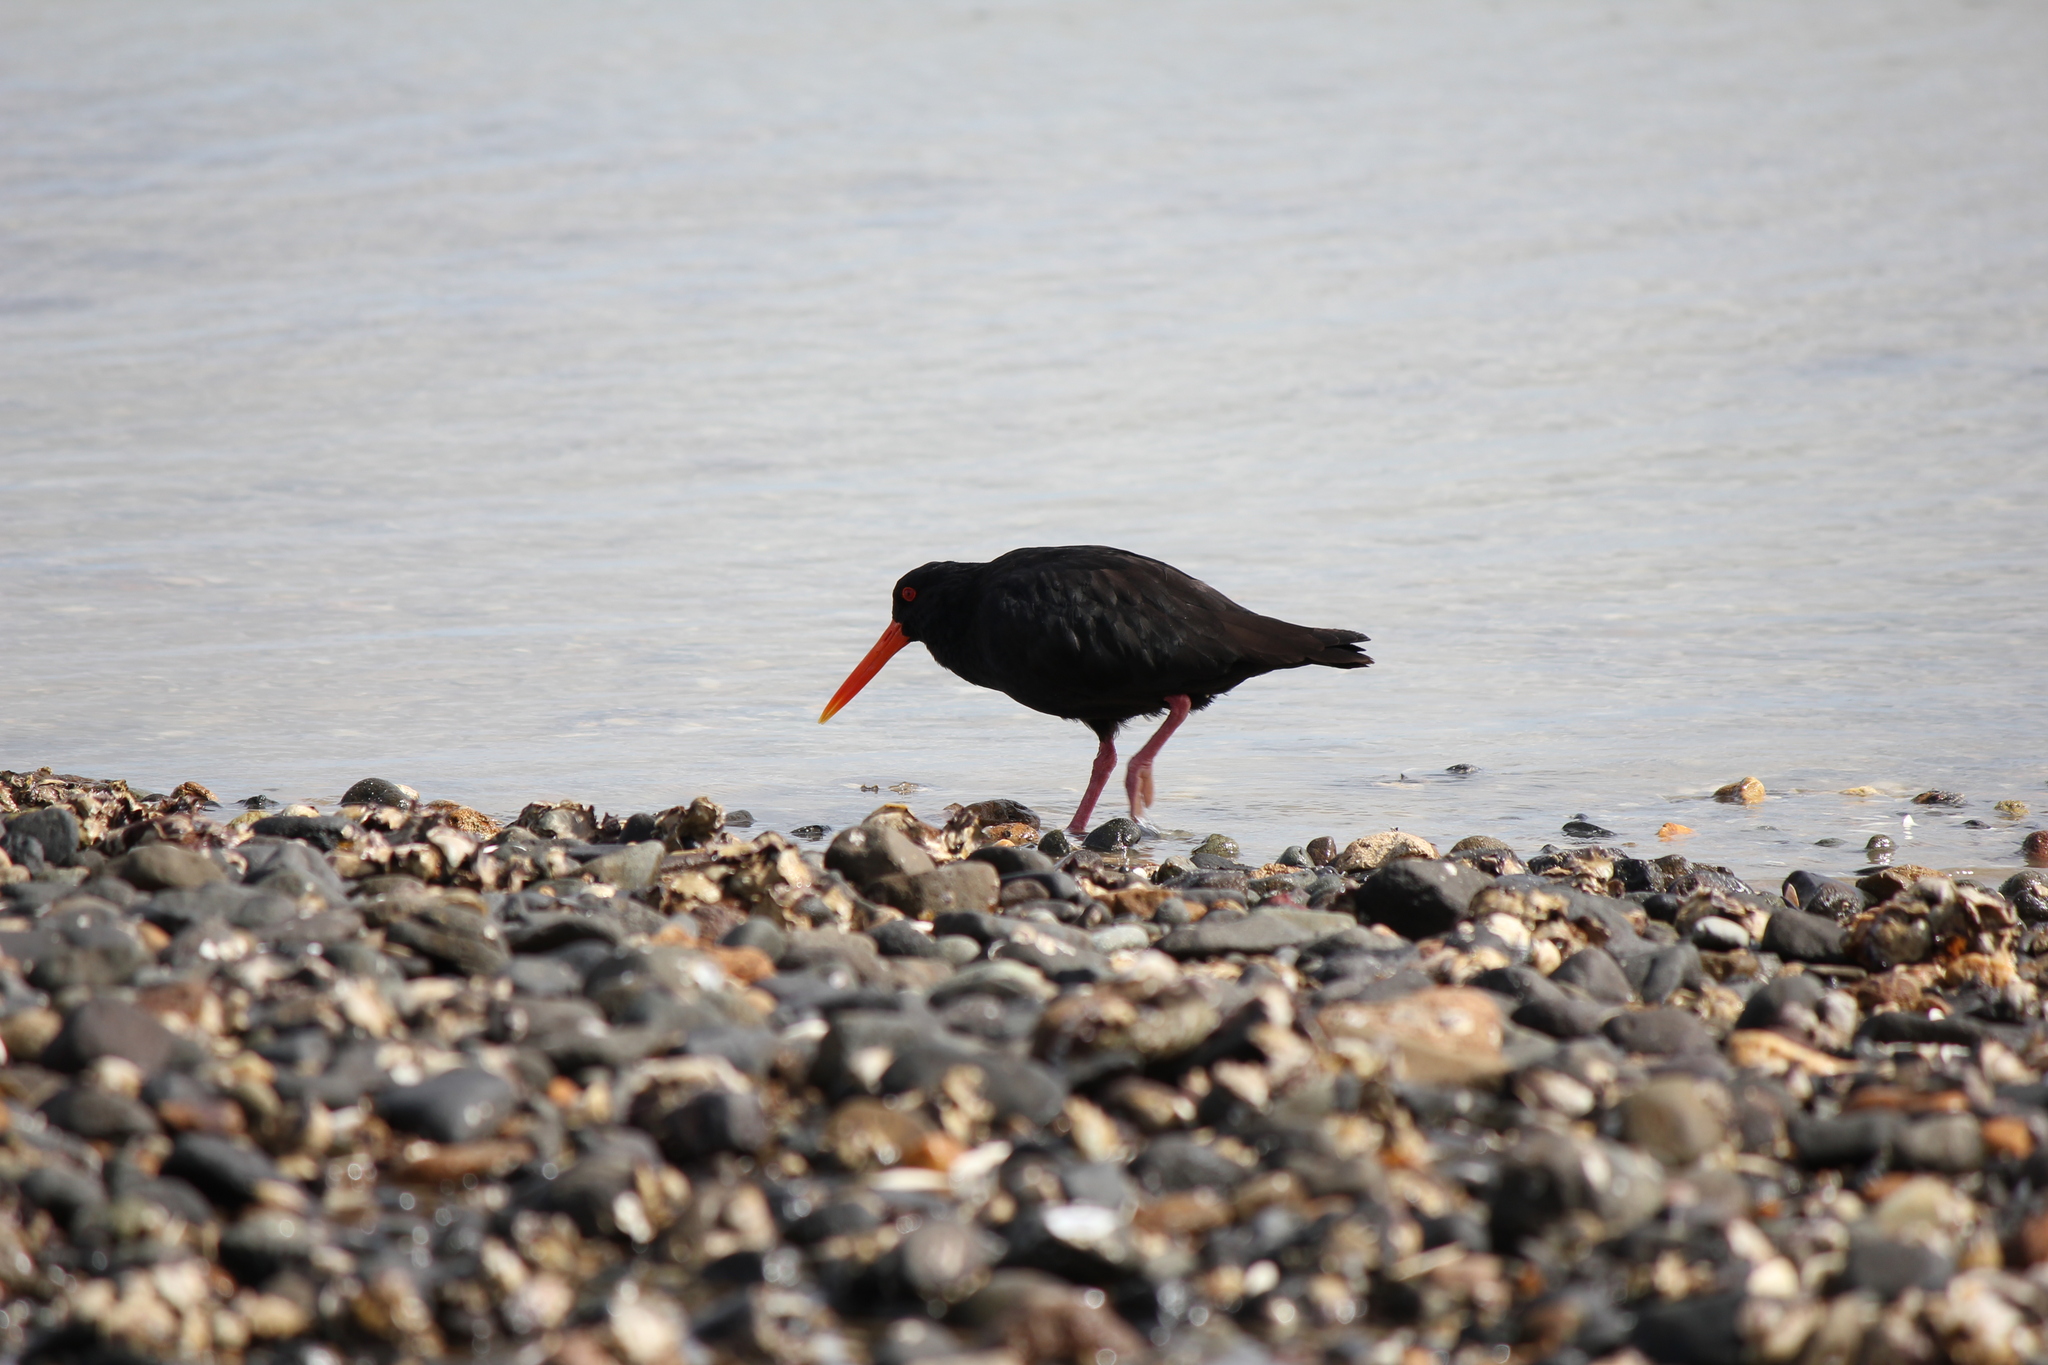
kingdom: Animalia
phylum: Chordata
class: Aves
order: Charadriiformes
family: Haematopodidae
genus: Haematopus
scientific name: Haematopus unicolor
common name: Variable oystercatcher
